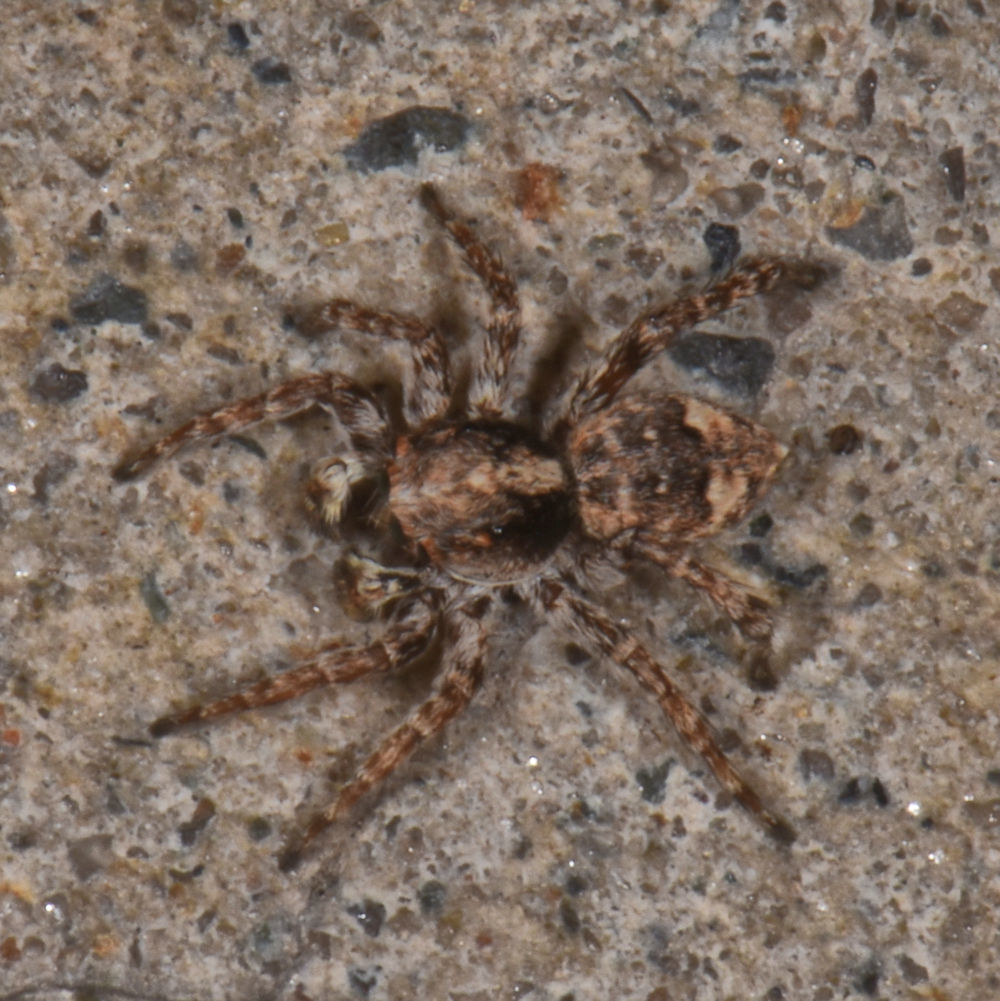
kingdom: Animalia
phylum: Arthropoda
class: Arachnida
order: Araneae
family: Salticidae
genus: Attulus
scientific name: Attulus fasciger
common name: Asiatic wall jumping spider
